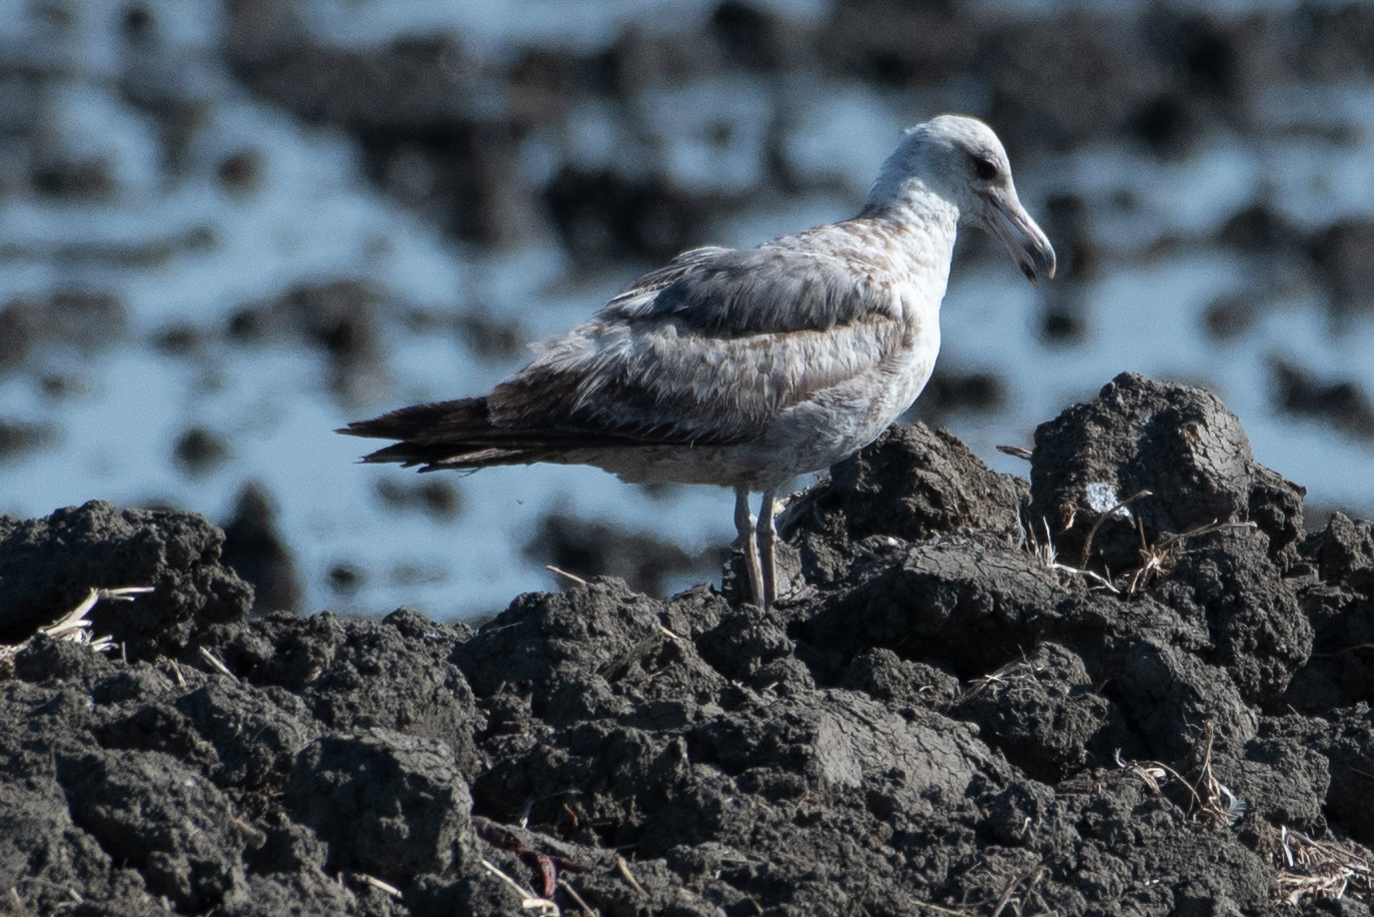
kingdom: Animalia
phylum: Chordata
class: Aves
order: Charadriiformes
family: Laridae
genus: Larus
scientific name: Larus californicus
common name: California gull
